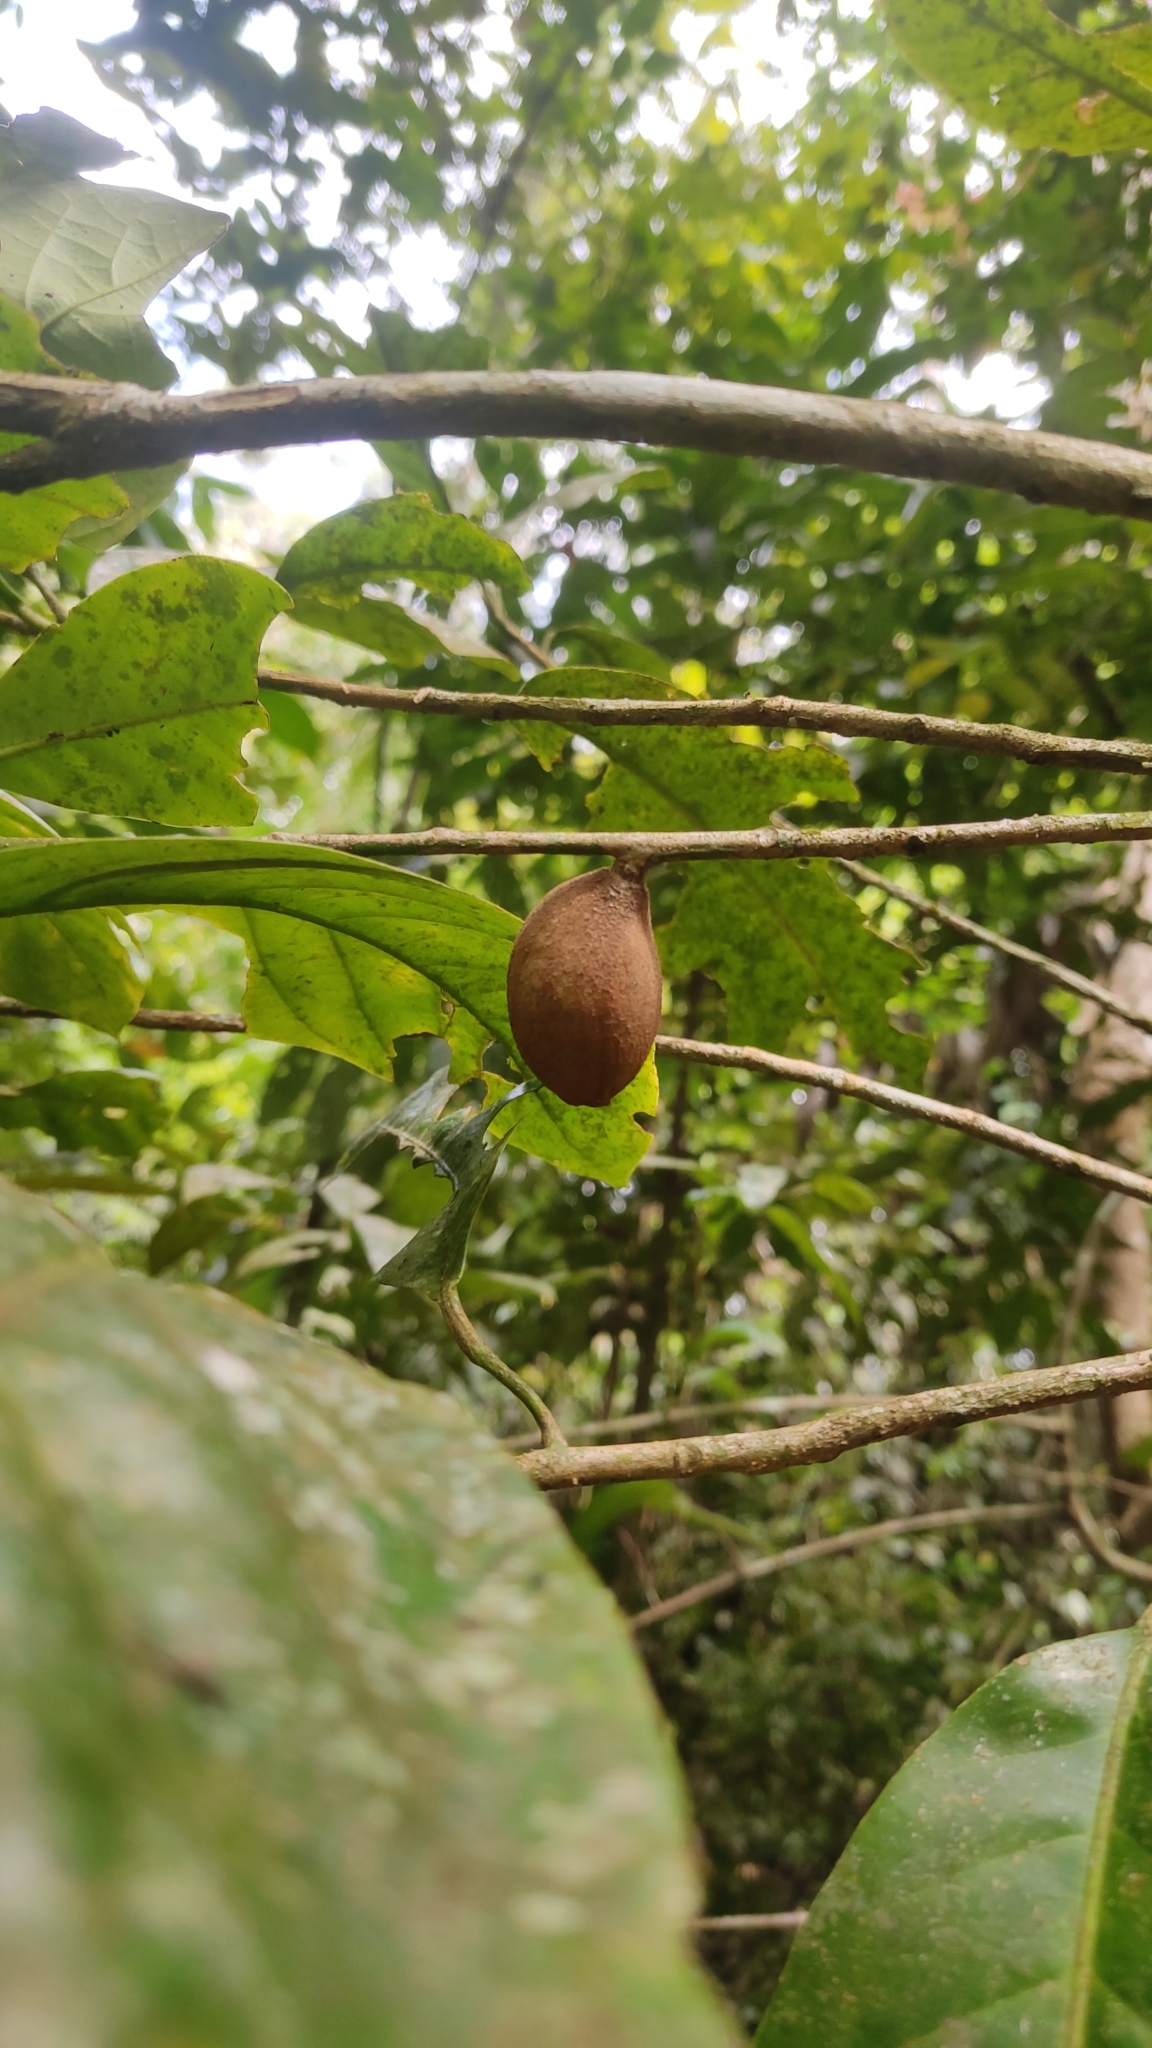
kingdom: Plantae
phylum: Tracheophyta
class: Magnoliopsida
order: Sapindales
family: Meliaceae
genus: Aglaia
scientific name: Aglaia simplicifolia
